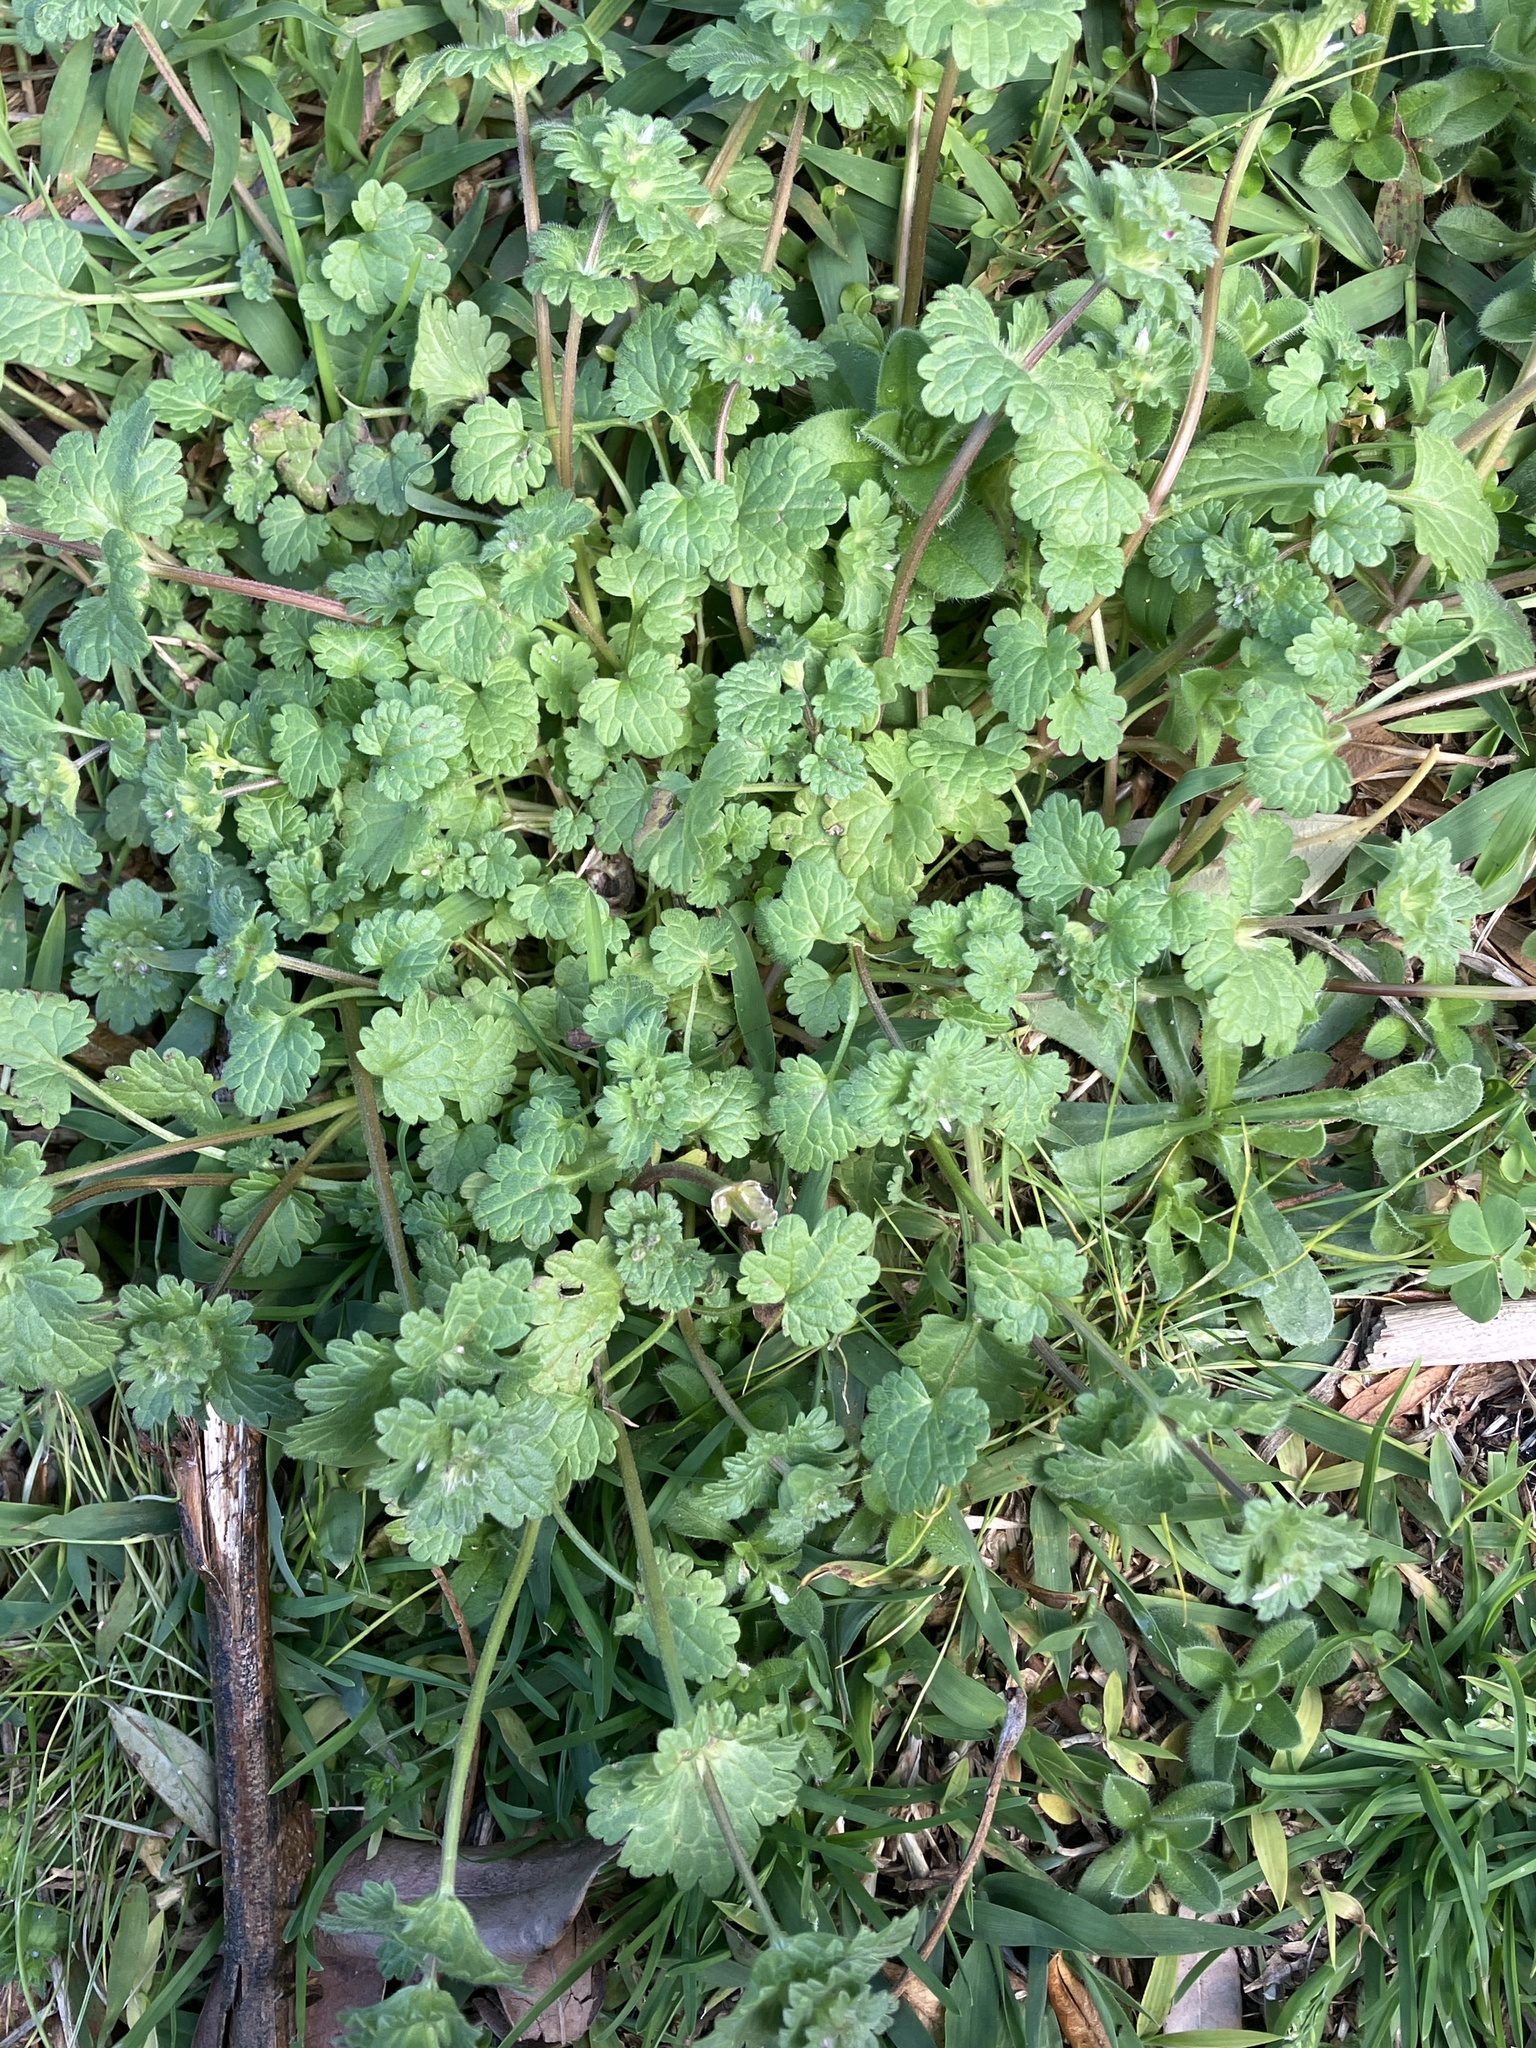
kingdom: Plantae
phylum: Tracheophyta
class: Magnoliopsida
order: Lamiales
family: Lamiaceae
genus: Lamium
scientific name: Lamium amplexicaule
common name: Henbit dead-nettle
